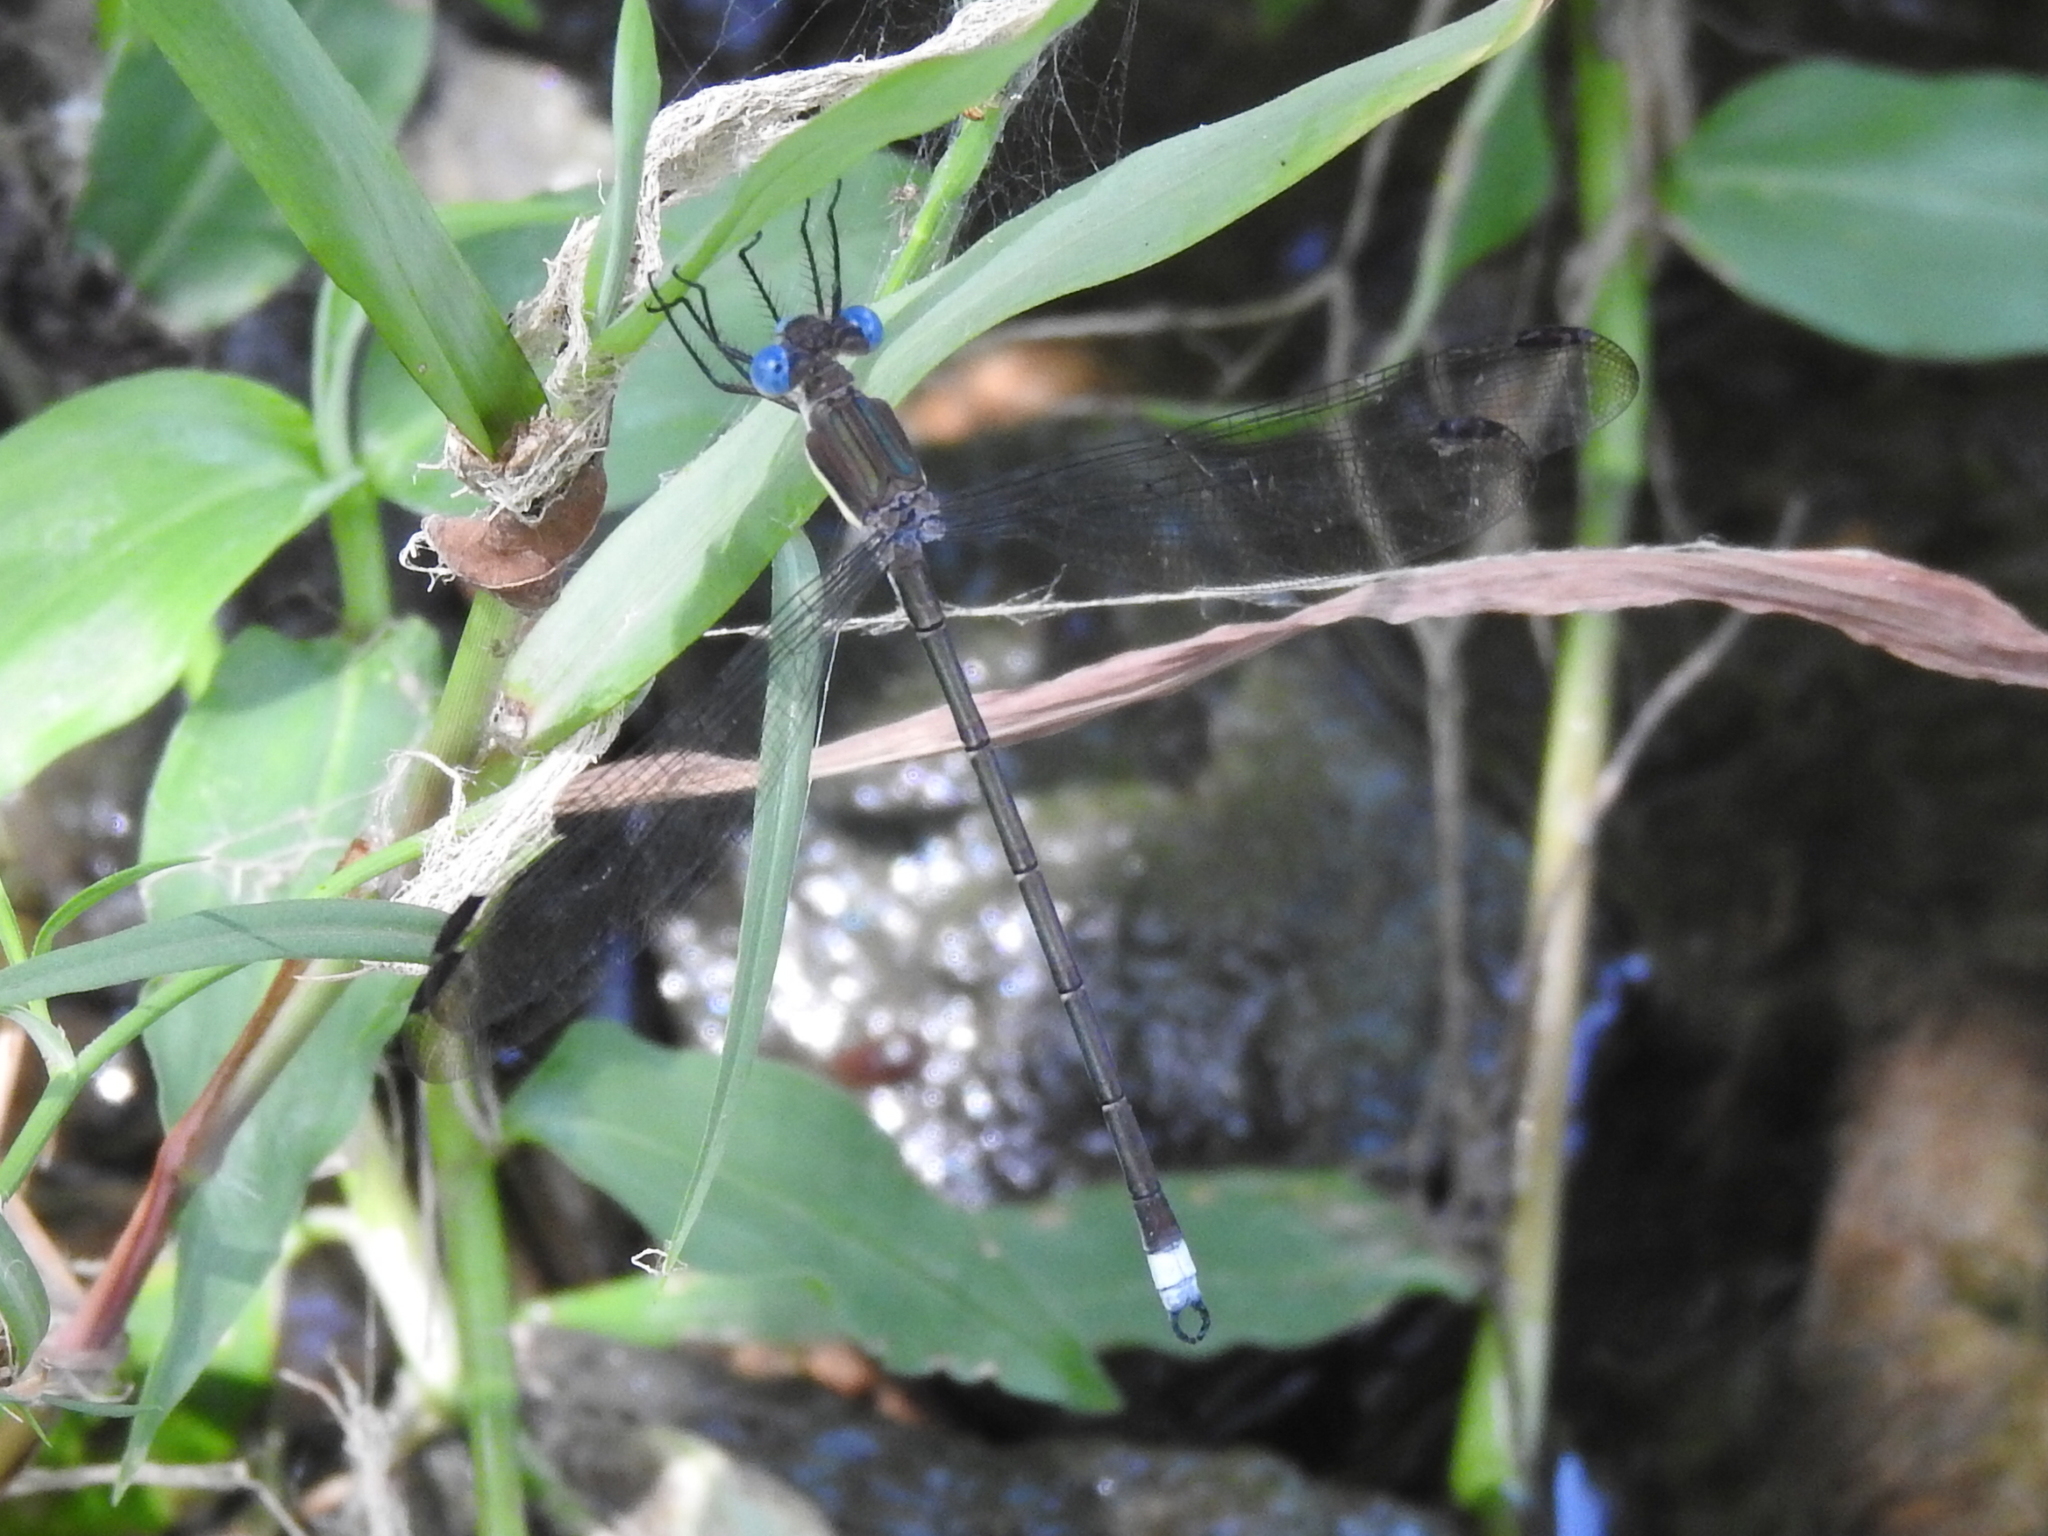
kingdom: Animalia
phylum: Arthropoda
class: Insecta
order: Odonata
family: Lestidae
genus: Archilestes
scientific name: Archilestes grandis
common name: Great spreadwing
